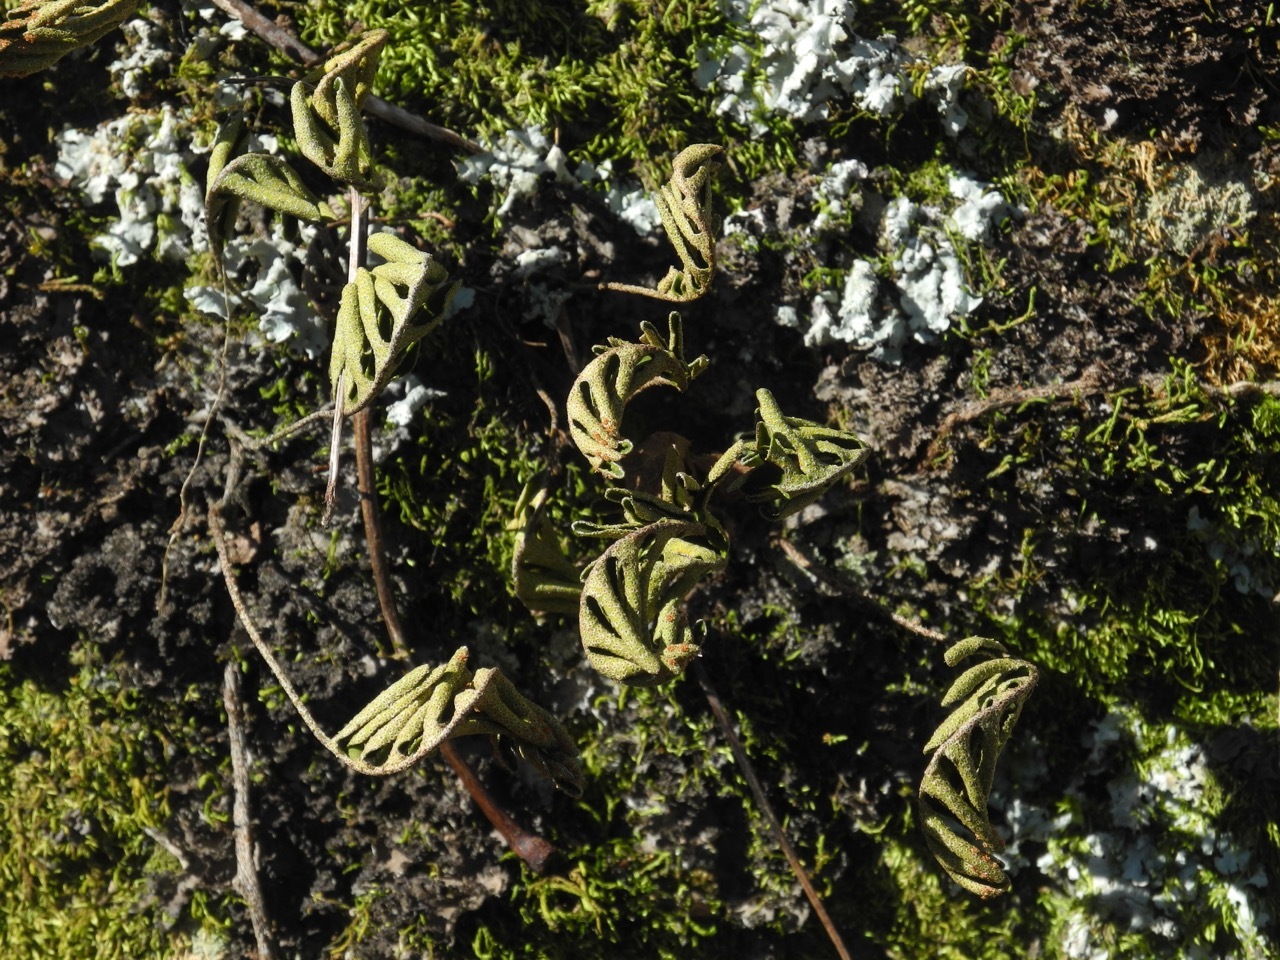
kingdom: Plantae
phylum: Tracheophyta
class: Polypodiopsida
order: Polypodiales
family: Polypodiaceae
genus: Pleopeltis
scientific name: Pleopeltis michauxiana
